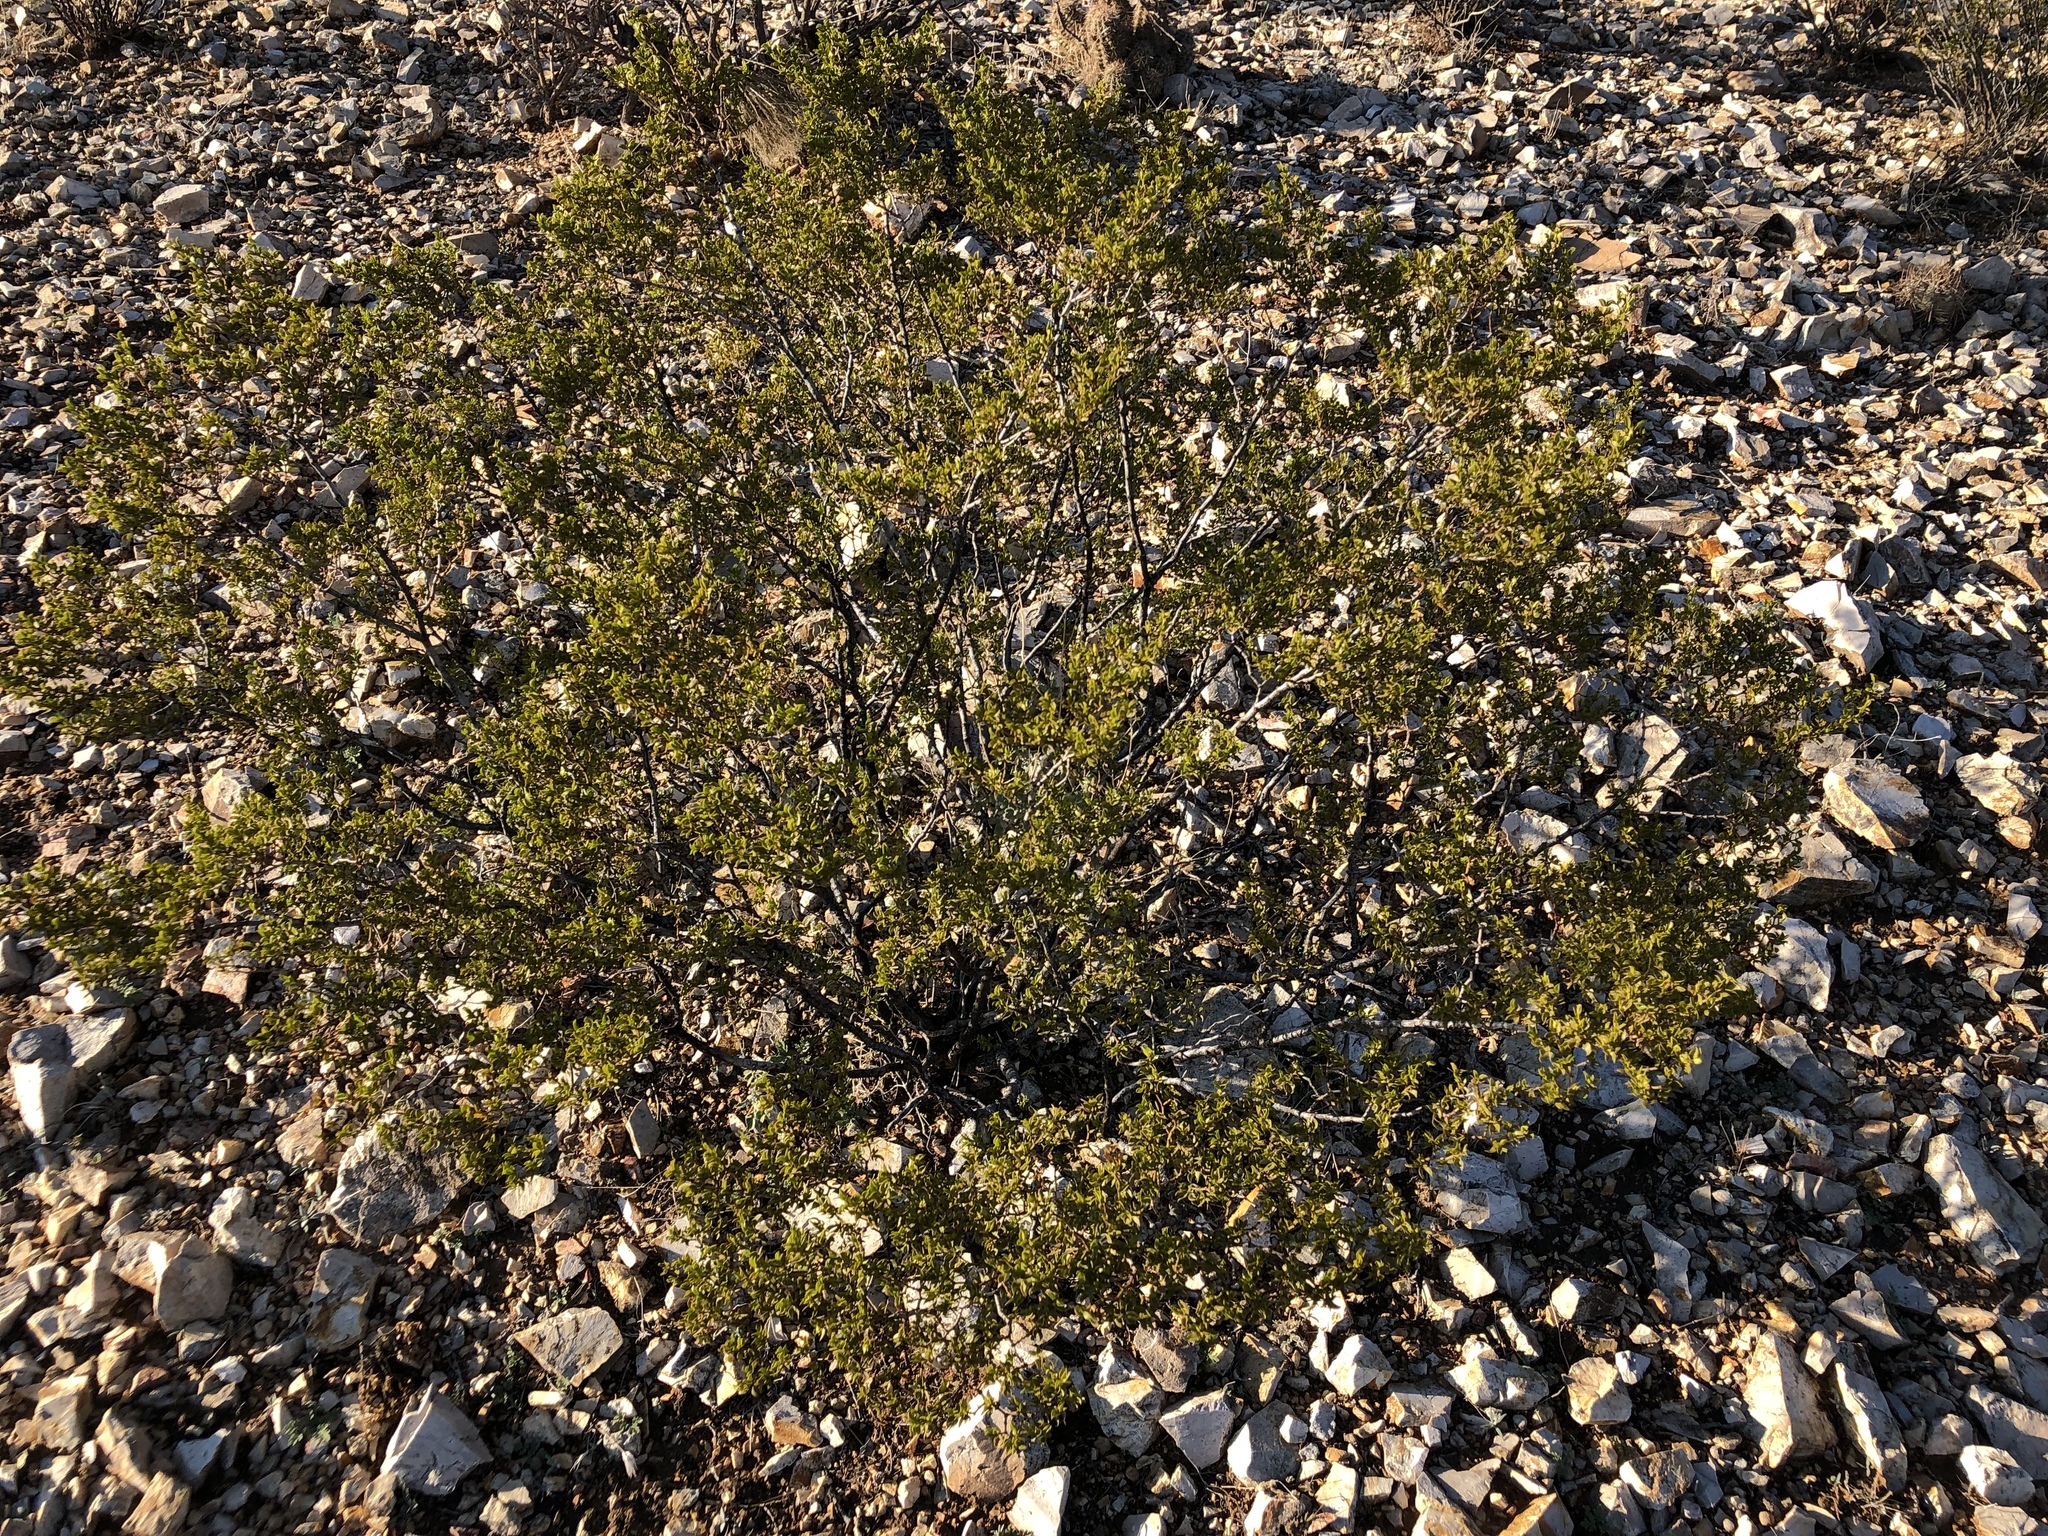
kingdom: Plantae
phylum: Tracheophyta
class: Magnoliopsida
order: Zygophyllales
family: Zygophyllaceae
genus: Larrea
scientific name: Larrea tridentata
